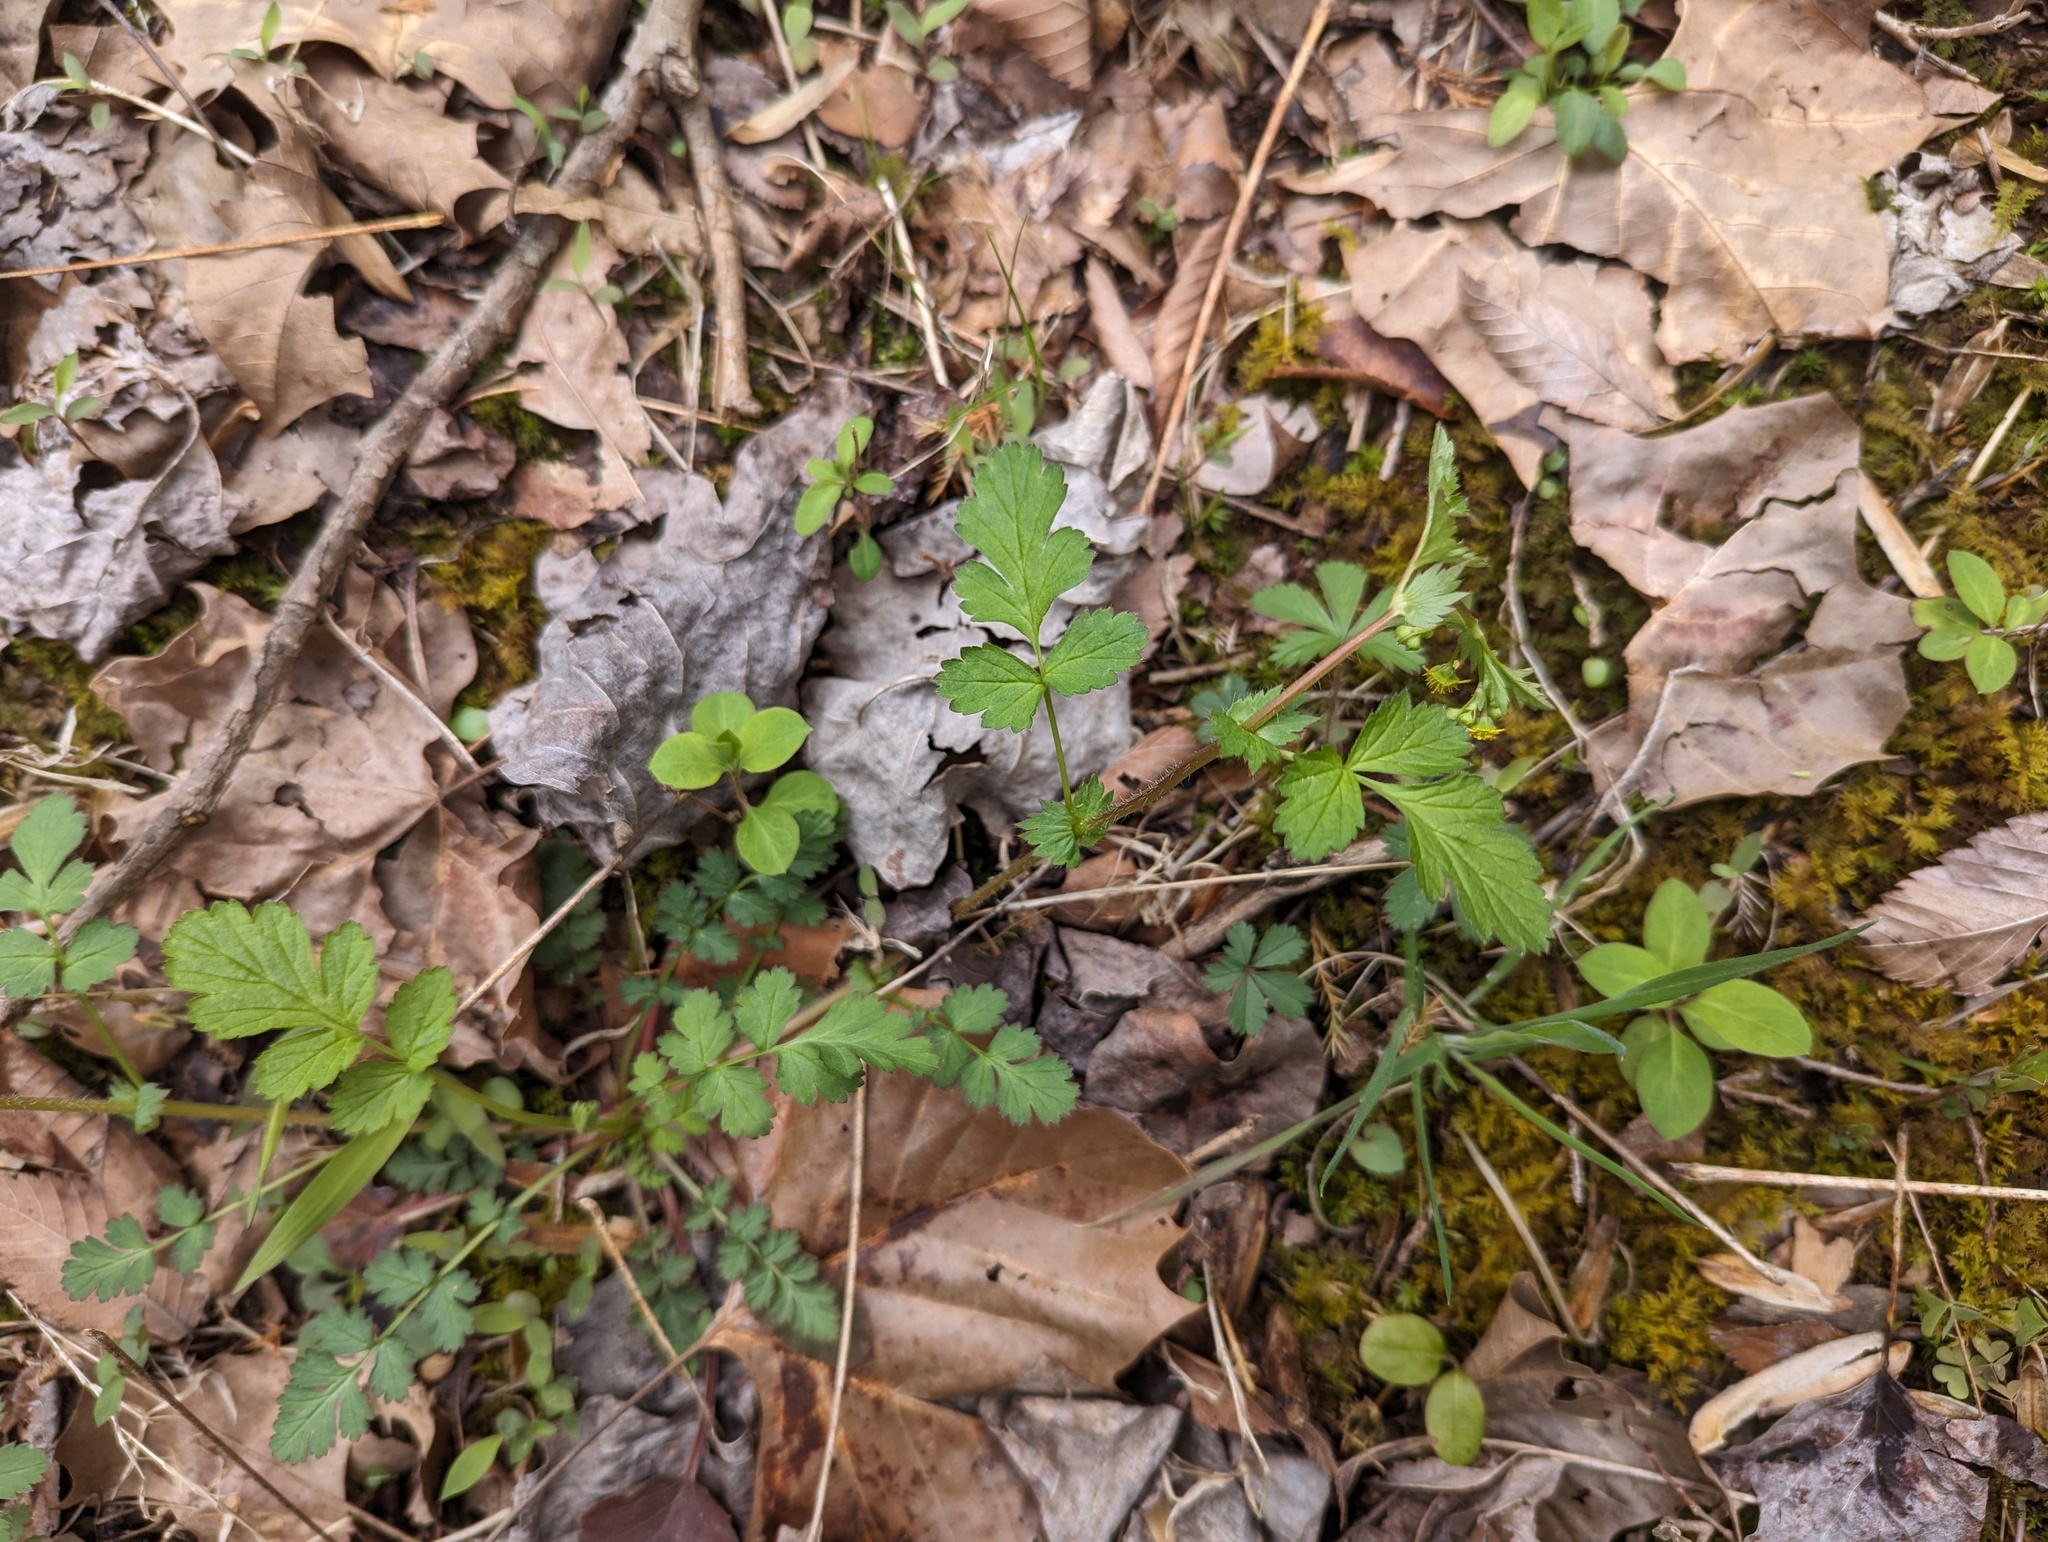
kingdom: Plantae
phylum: Tracheophyta
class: Magnoliopsida
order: Rosales
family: Rosaceae
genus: Geum
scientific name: Geum vernum
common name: Spring avens
